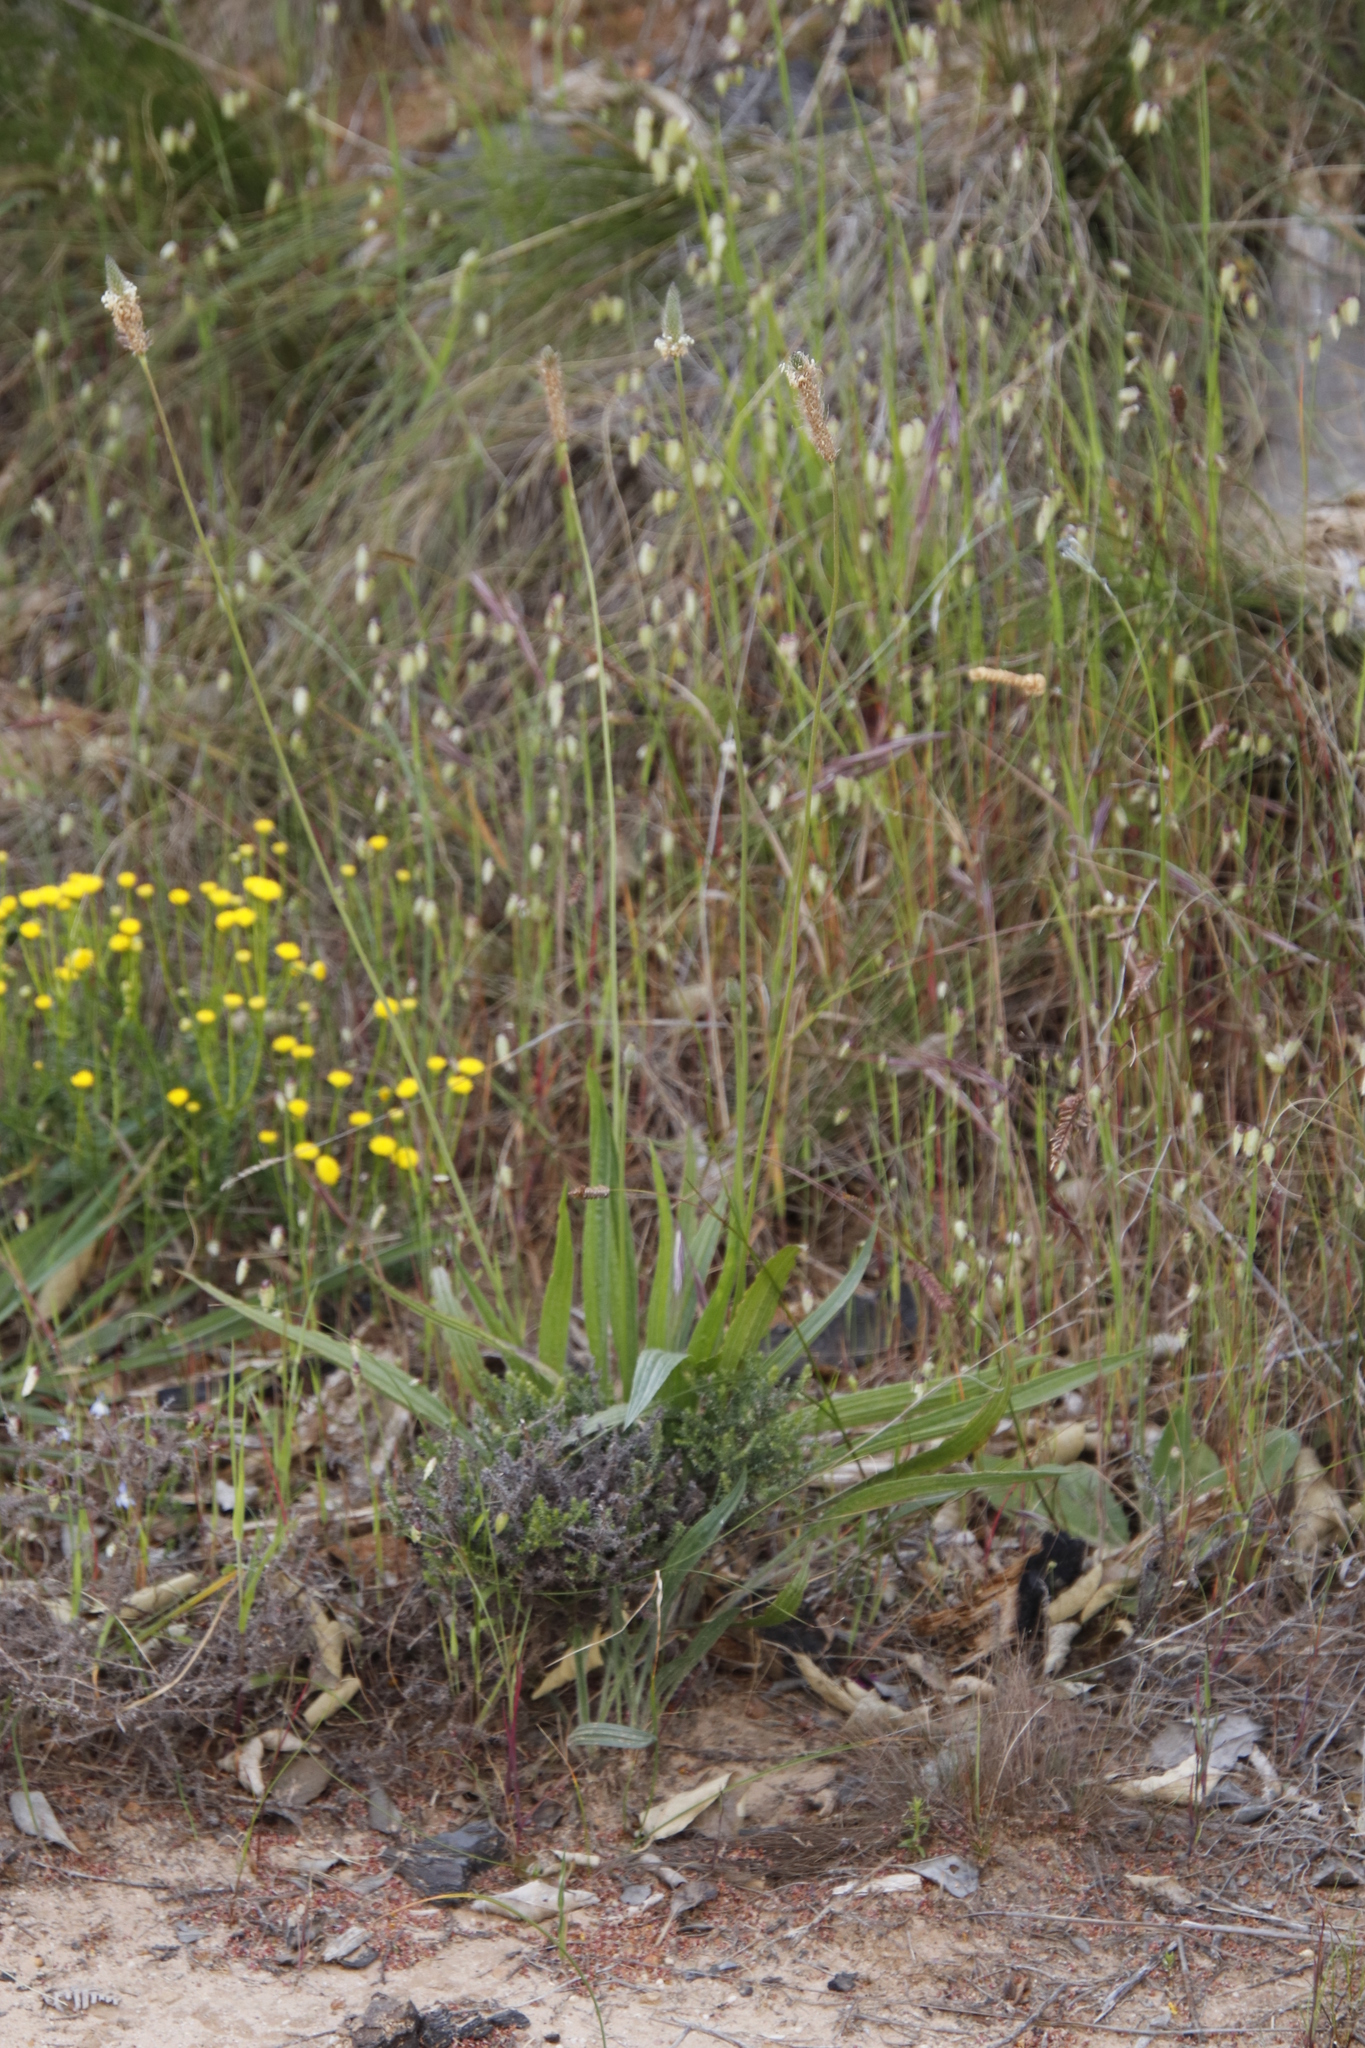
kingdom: Plantae
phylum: Tracheophyta
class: Magnoliopsida
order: Lamiales
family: Plantaginaceae
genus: Plantago
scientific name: Plantago lanceolata
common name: Ribwort plantain
